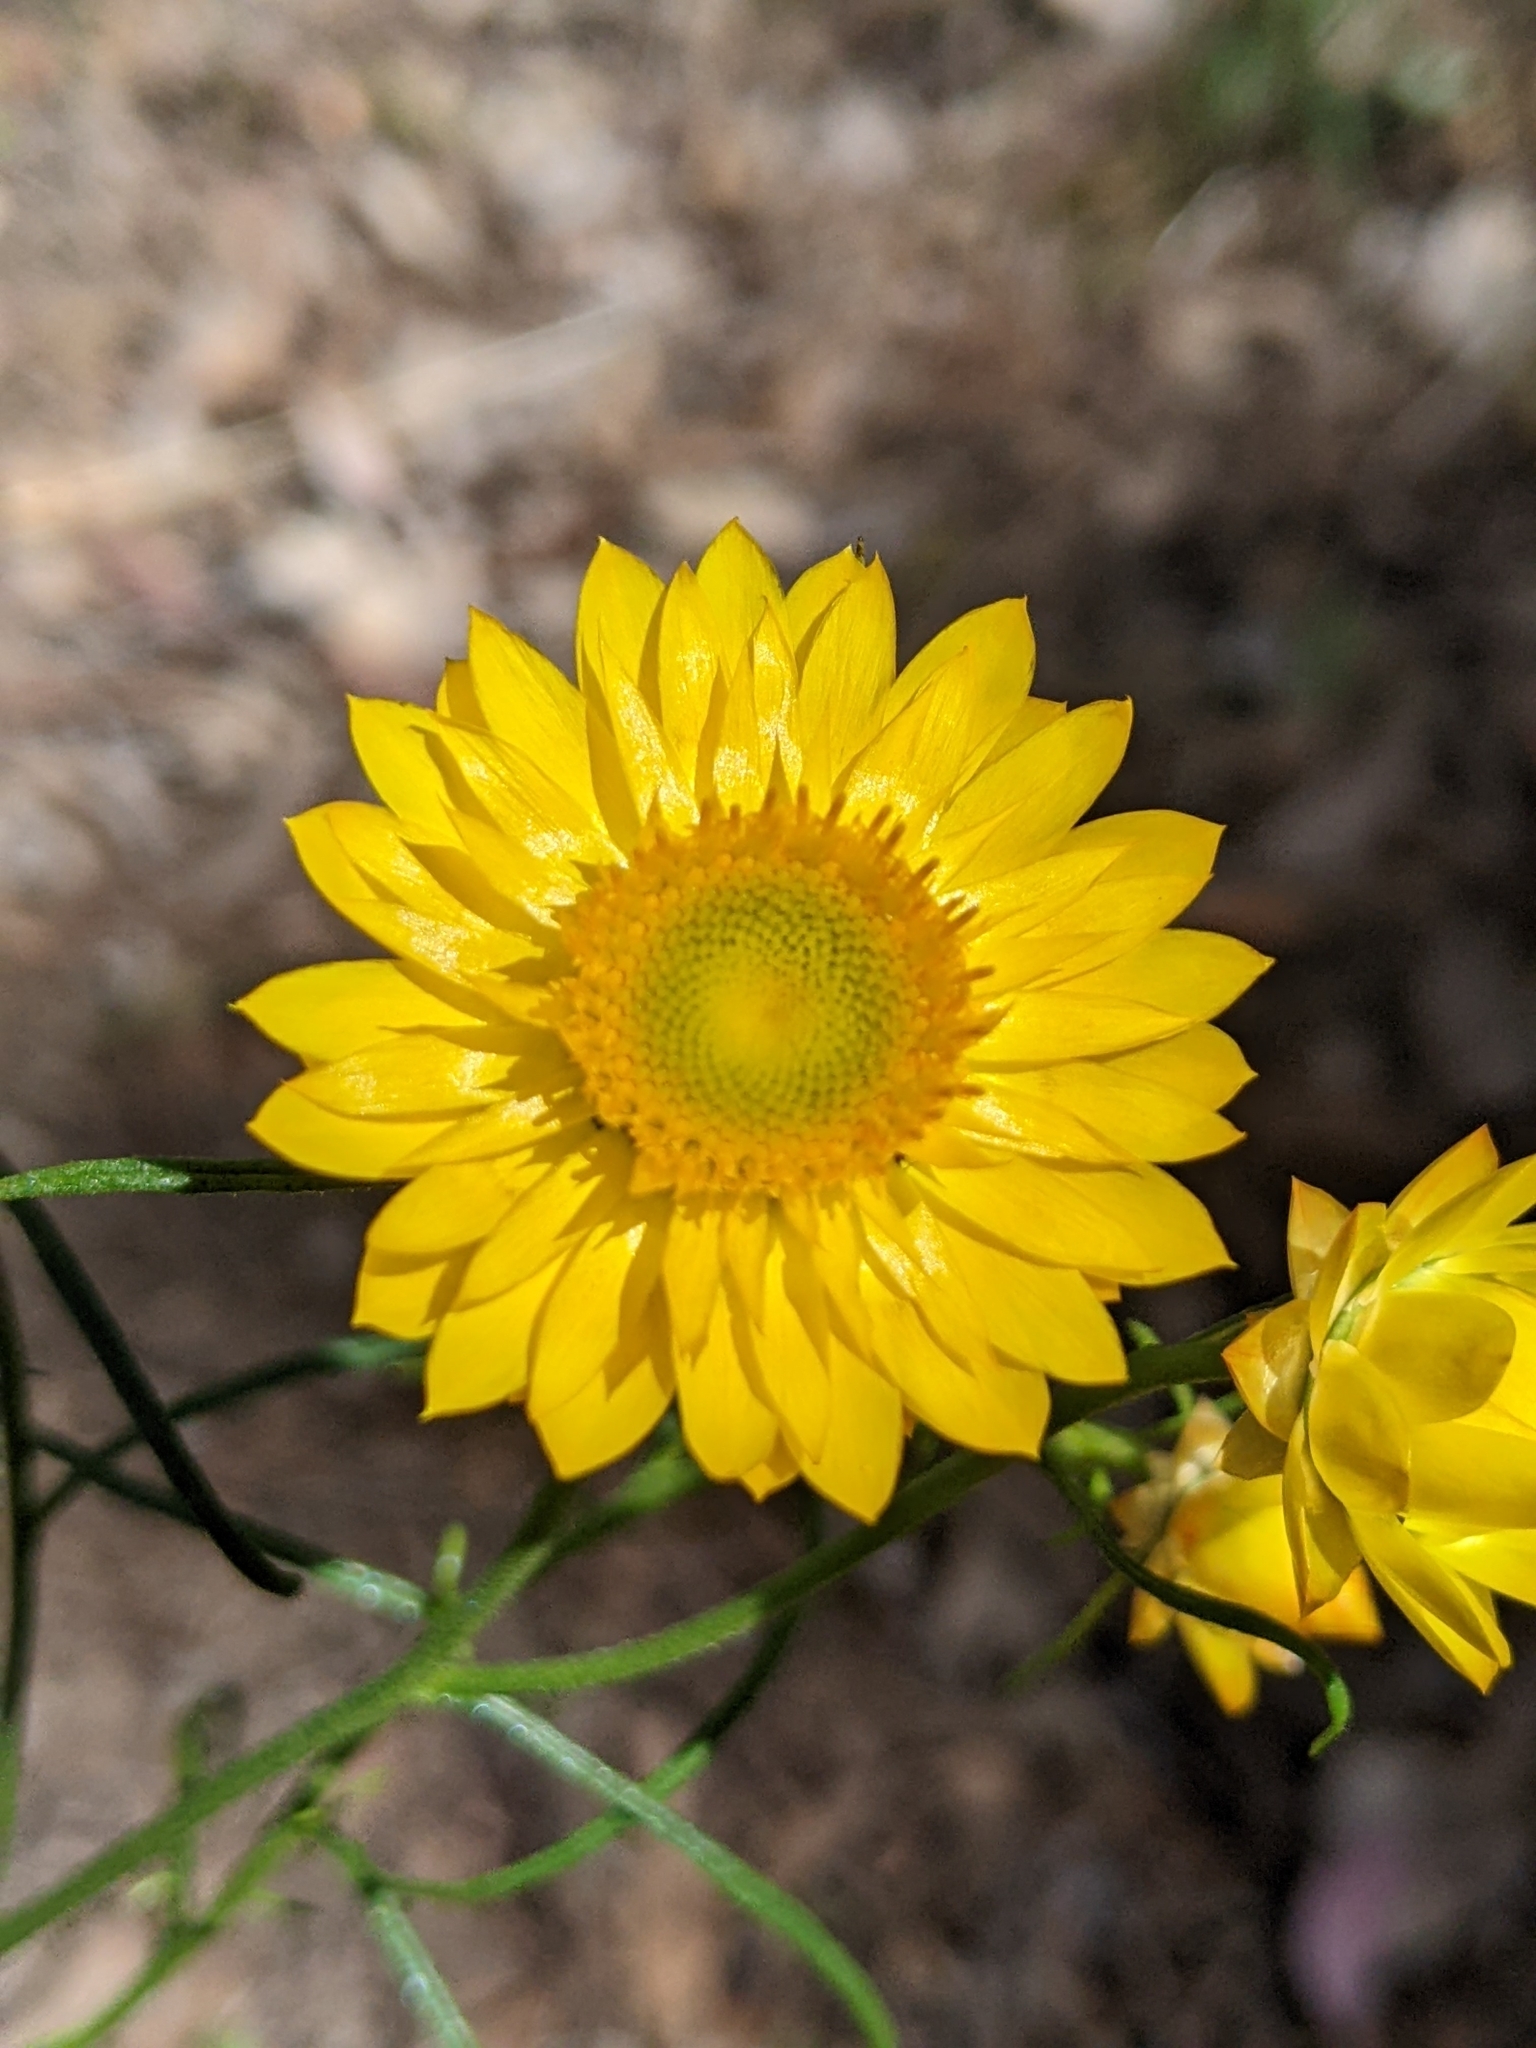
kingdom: Plantae
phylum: Tracheophyta
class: Magnoliopsida
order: Asterales
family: Asteraceae
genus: Xerochrysum
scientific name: Xerochrysum viscosum
